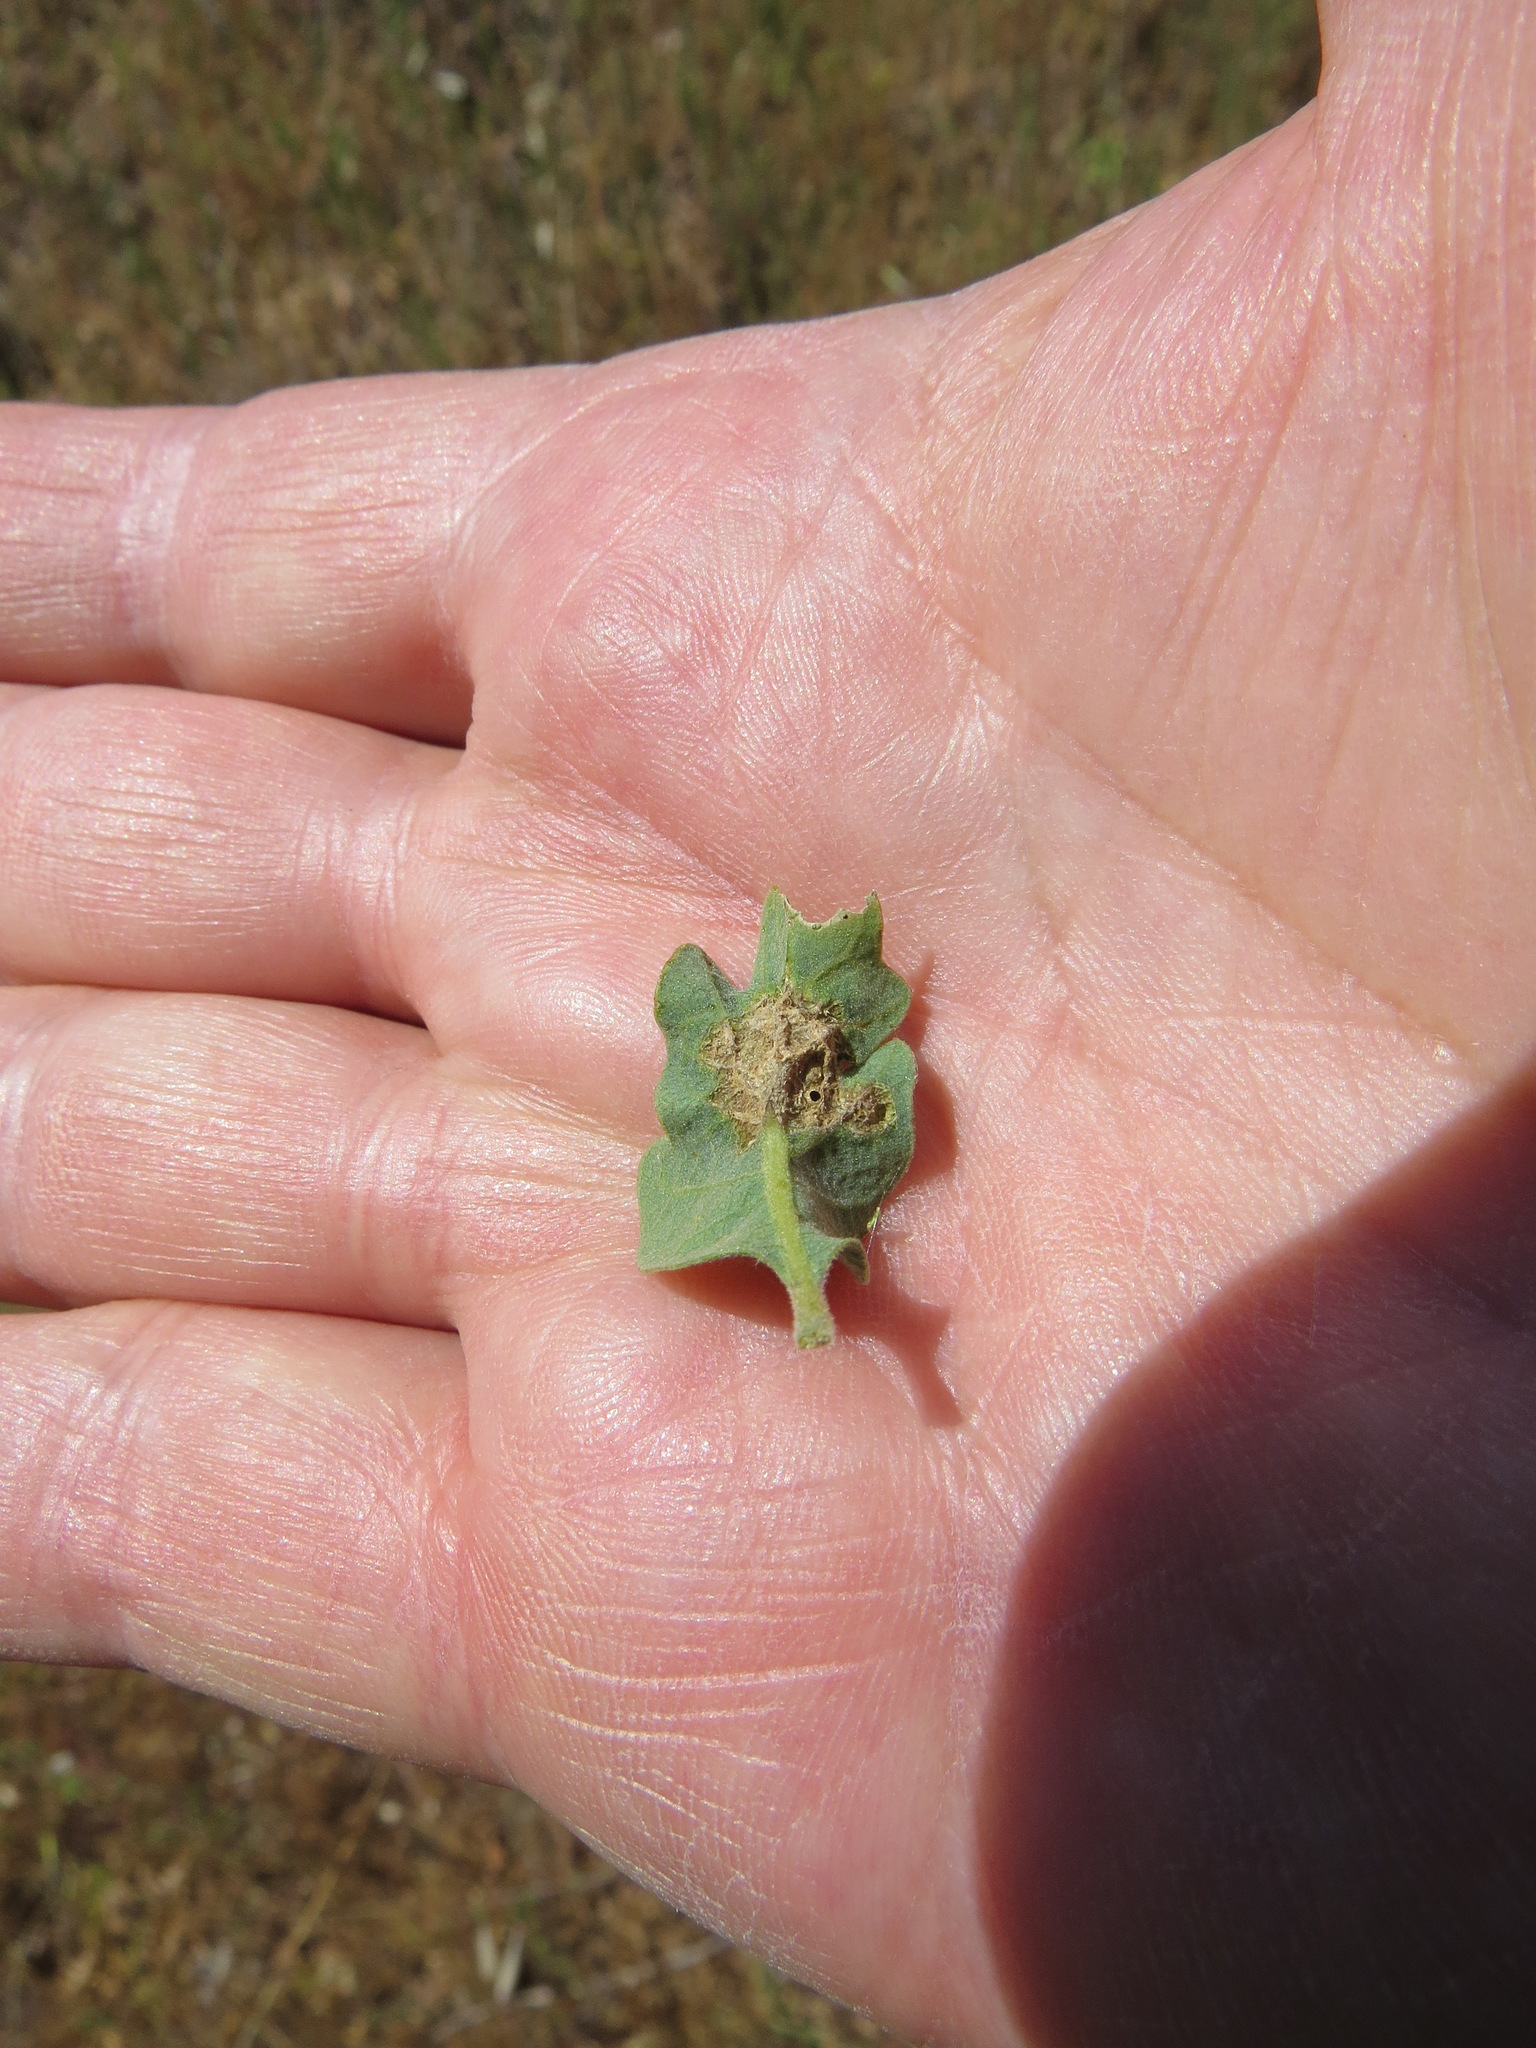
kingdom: Animalia
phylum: Arthropoda
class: Insecta
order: Hymenoptera
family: Cynipidae
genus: Neuroterus
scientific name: Neuroterus
